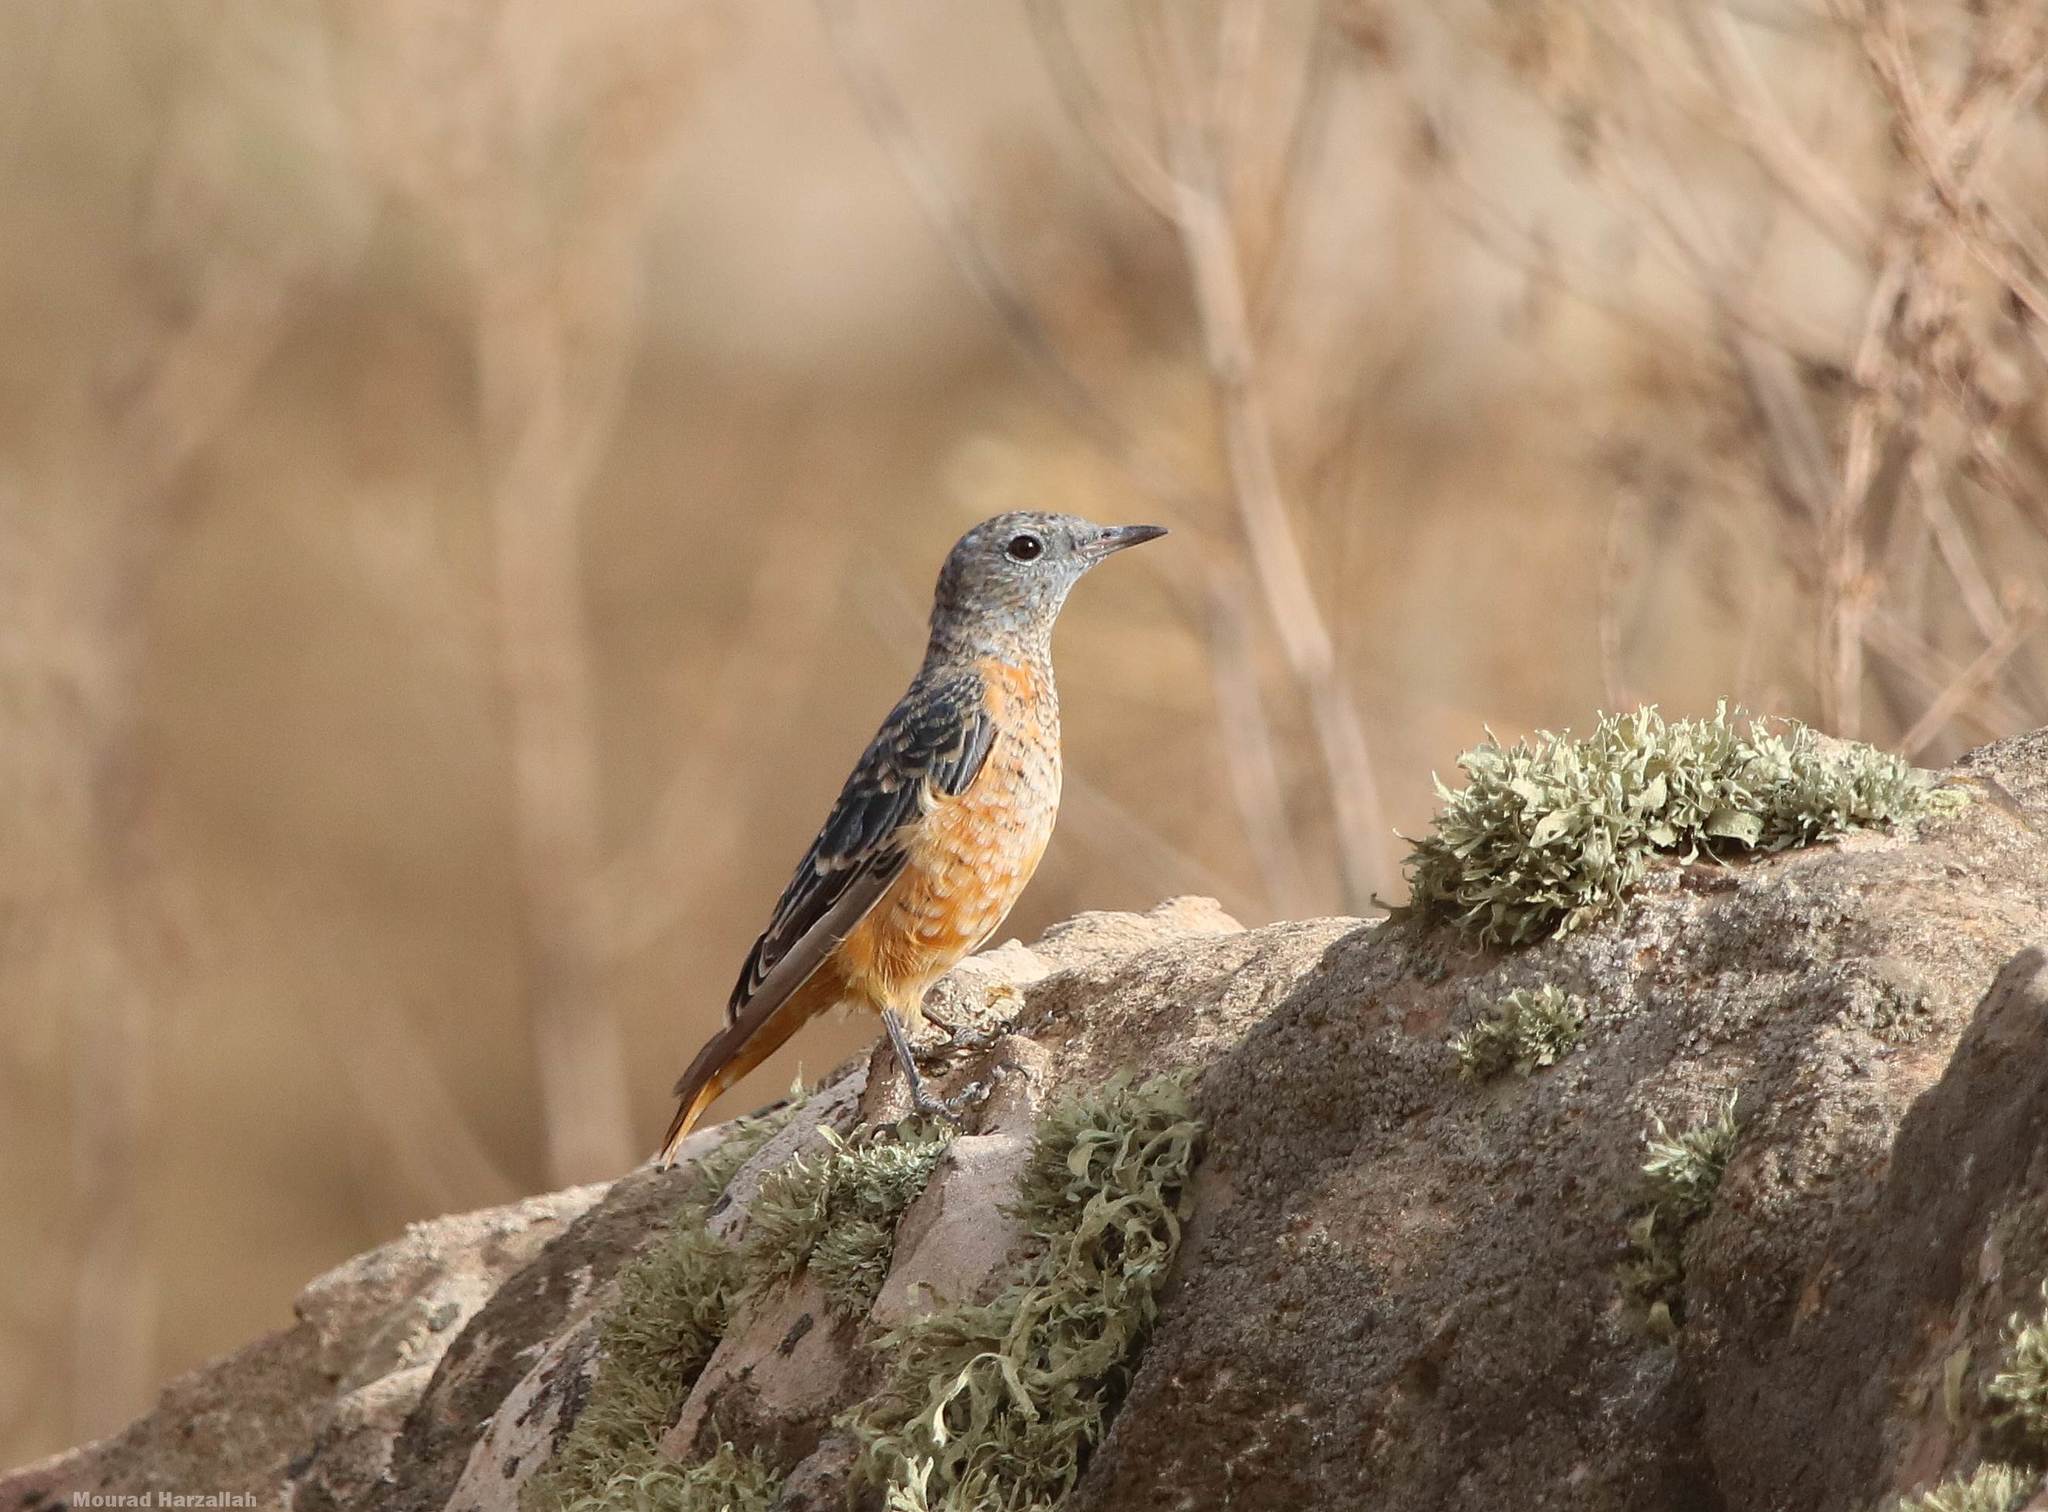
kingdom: Animalia
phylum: Chordata
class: Aves
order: Passeriformes
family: Muscicapidae
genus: Monticola
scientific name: Monticola saxatilis
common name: Rufous-tailed rock thrush
